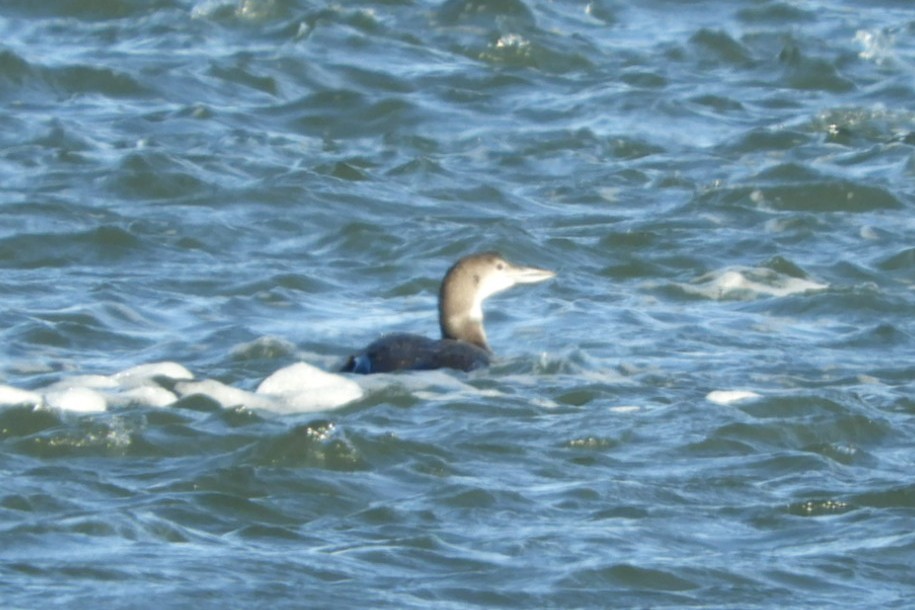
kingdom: Animalia
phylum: Chordata
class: Aves
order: Gaviiformes
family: Gaviidae
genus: Gavia
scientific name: Gavia immer
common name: Common loon
